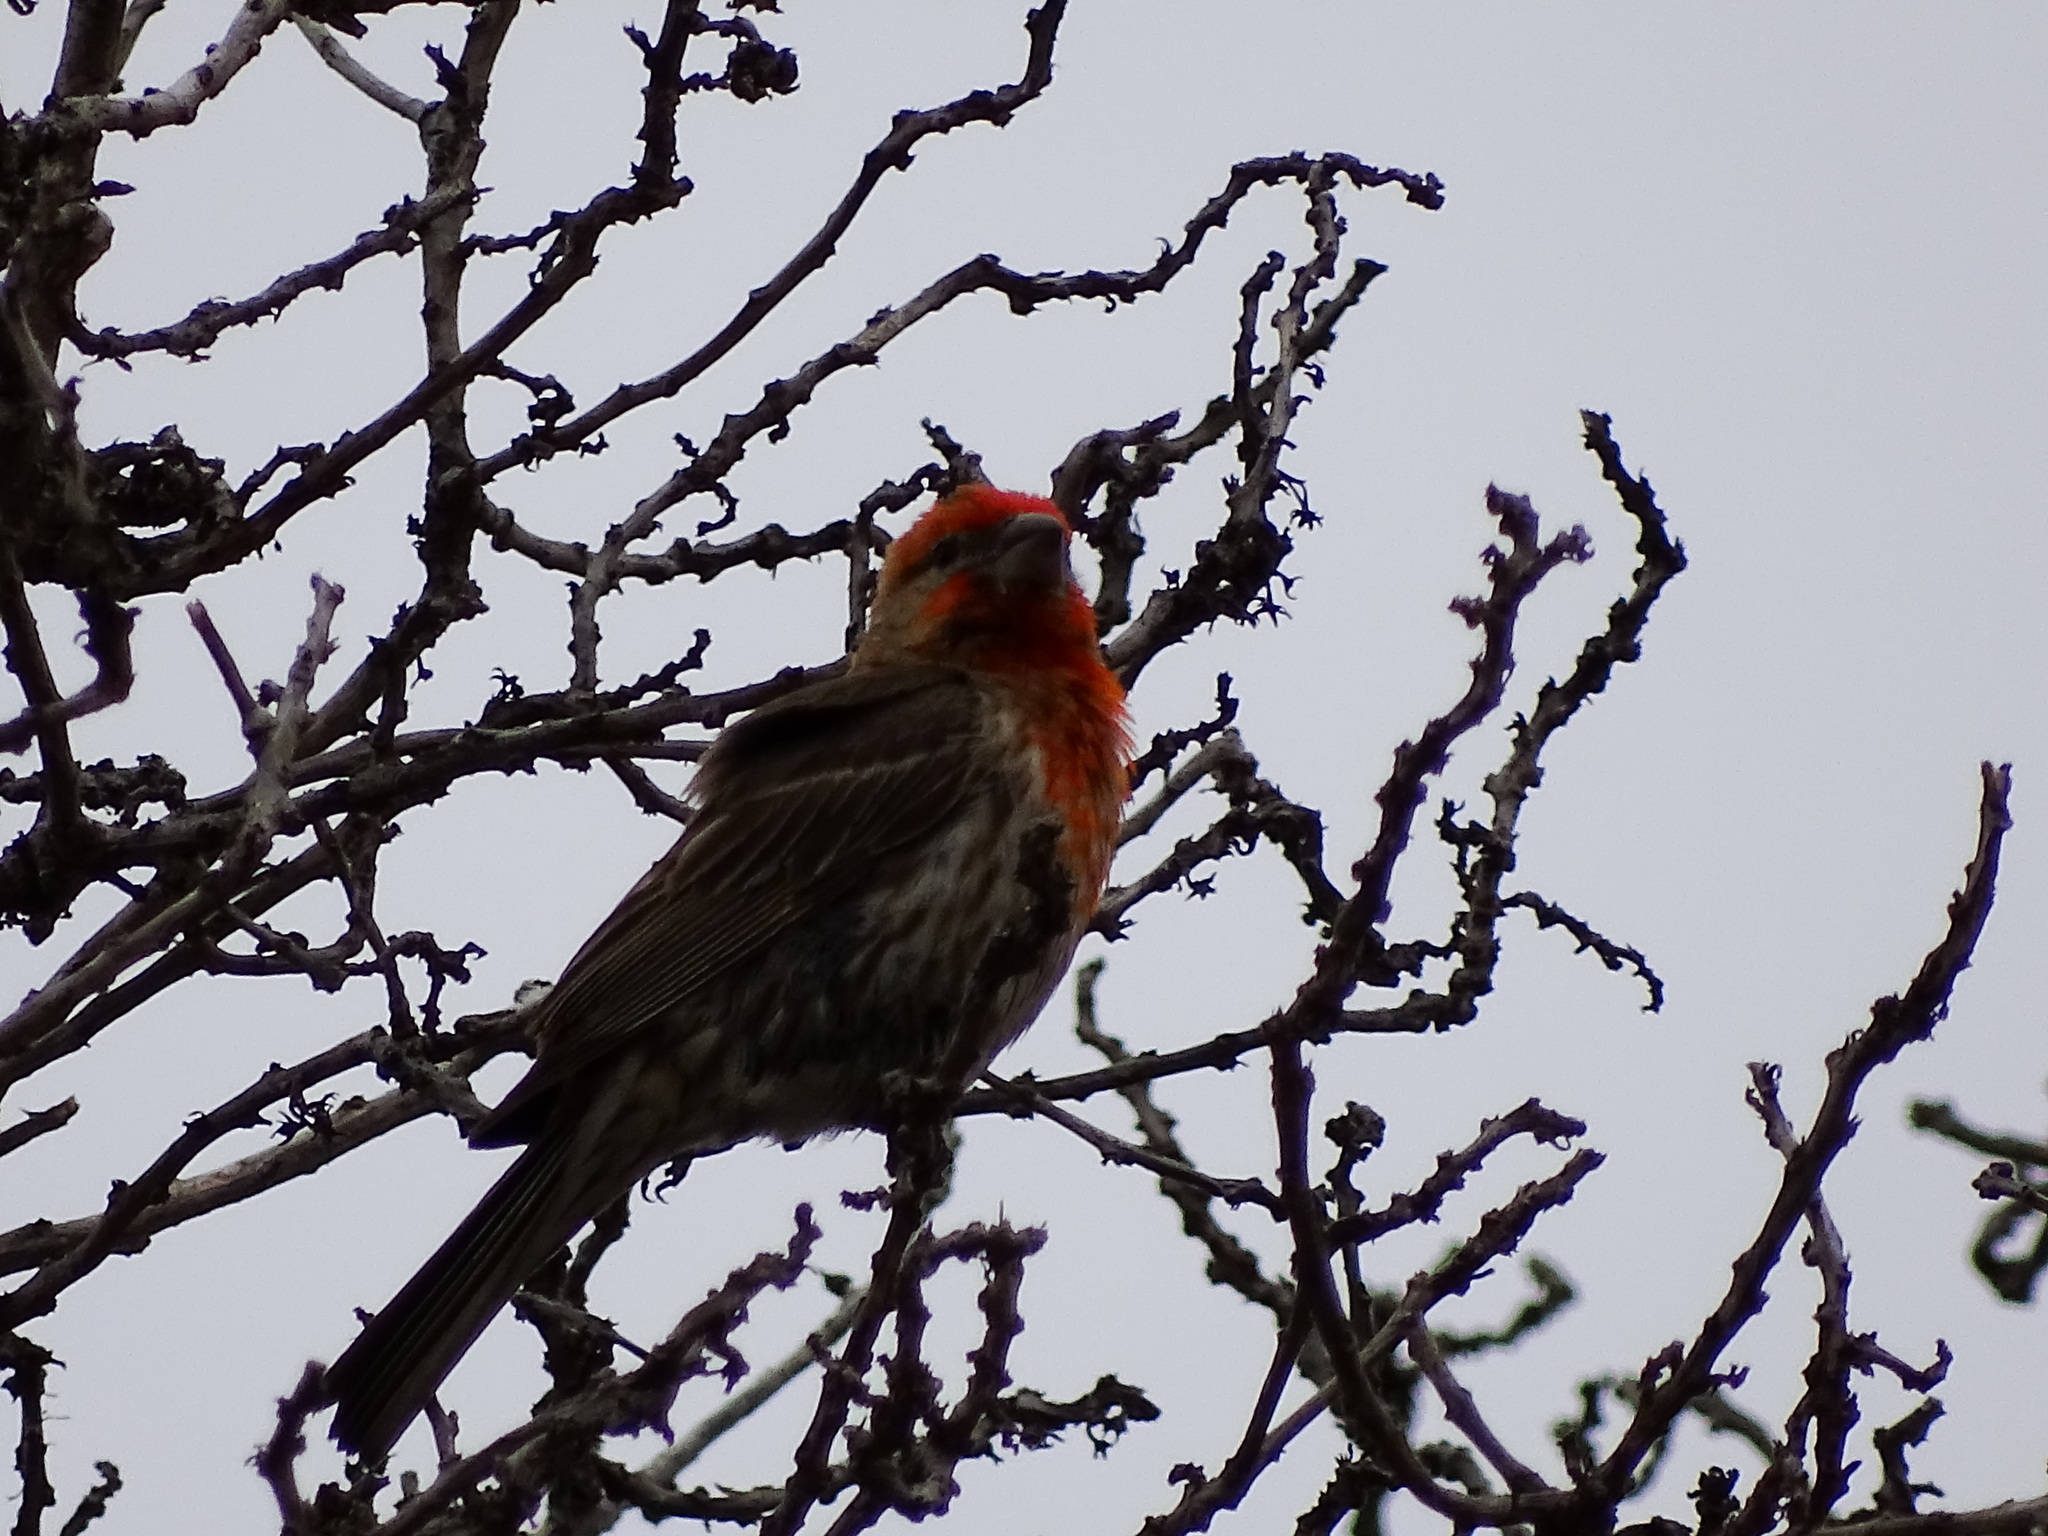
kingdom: Animalia
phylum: Chordata
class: Aves
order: Passeriformes
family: Fringillidae
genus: Haemorhous
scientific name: Haemorhous mexicanus
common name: House finch
